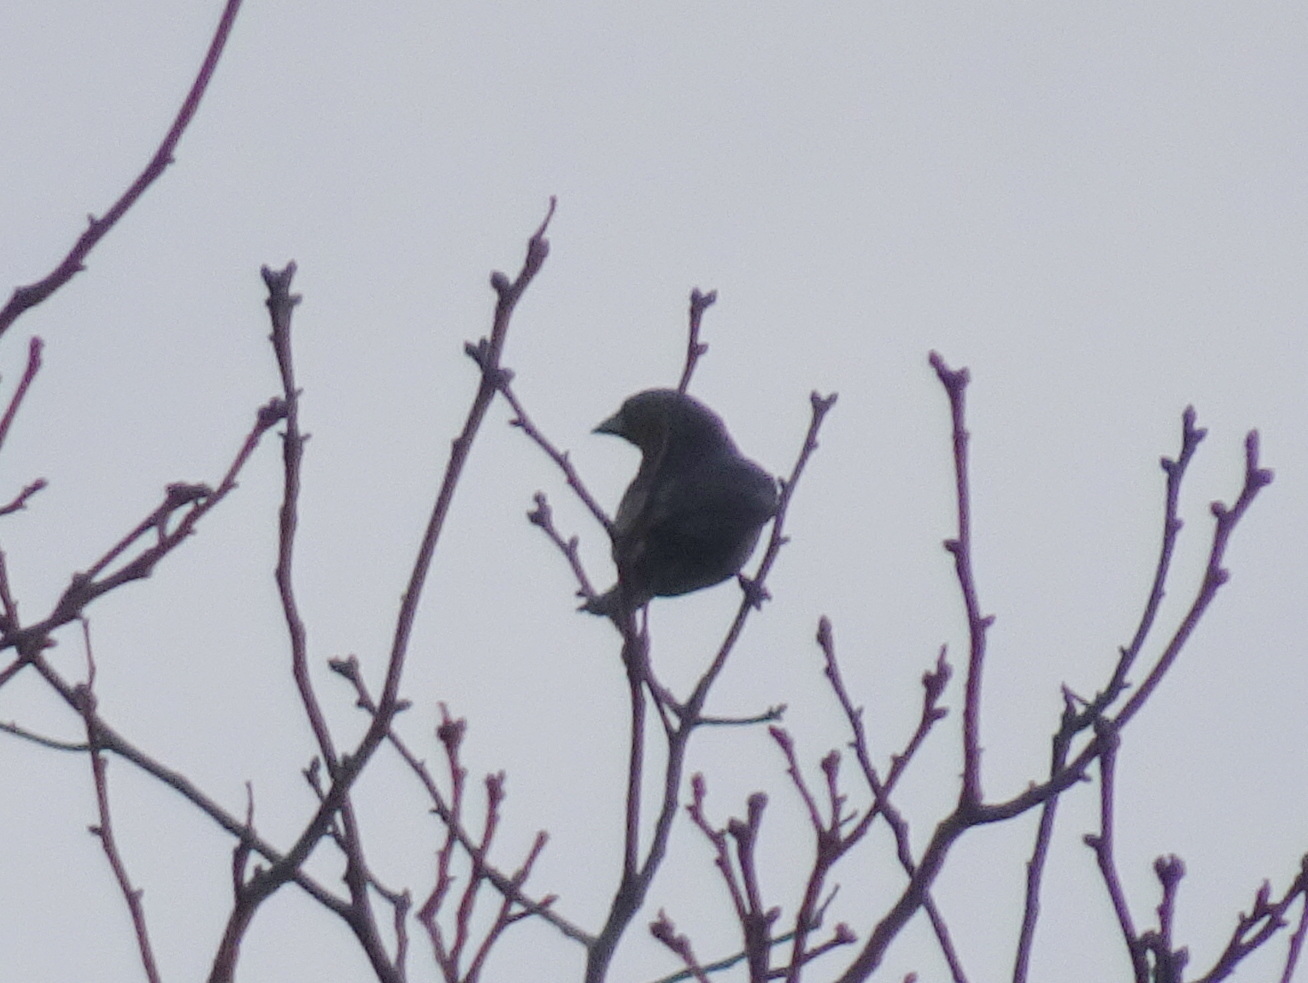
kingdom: Animalia
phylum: Chordata
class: Aves
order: Passeriformes
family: Icteridae
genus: Molothrus
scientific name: Molothrus ater
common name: Brown-headed cowbird
